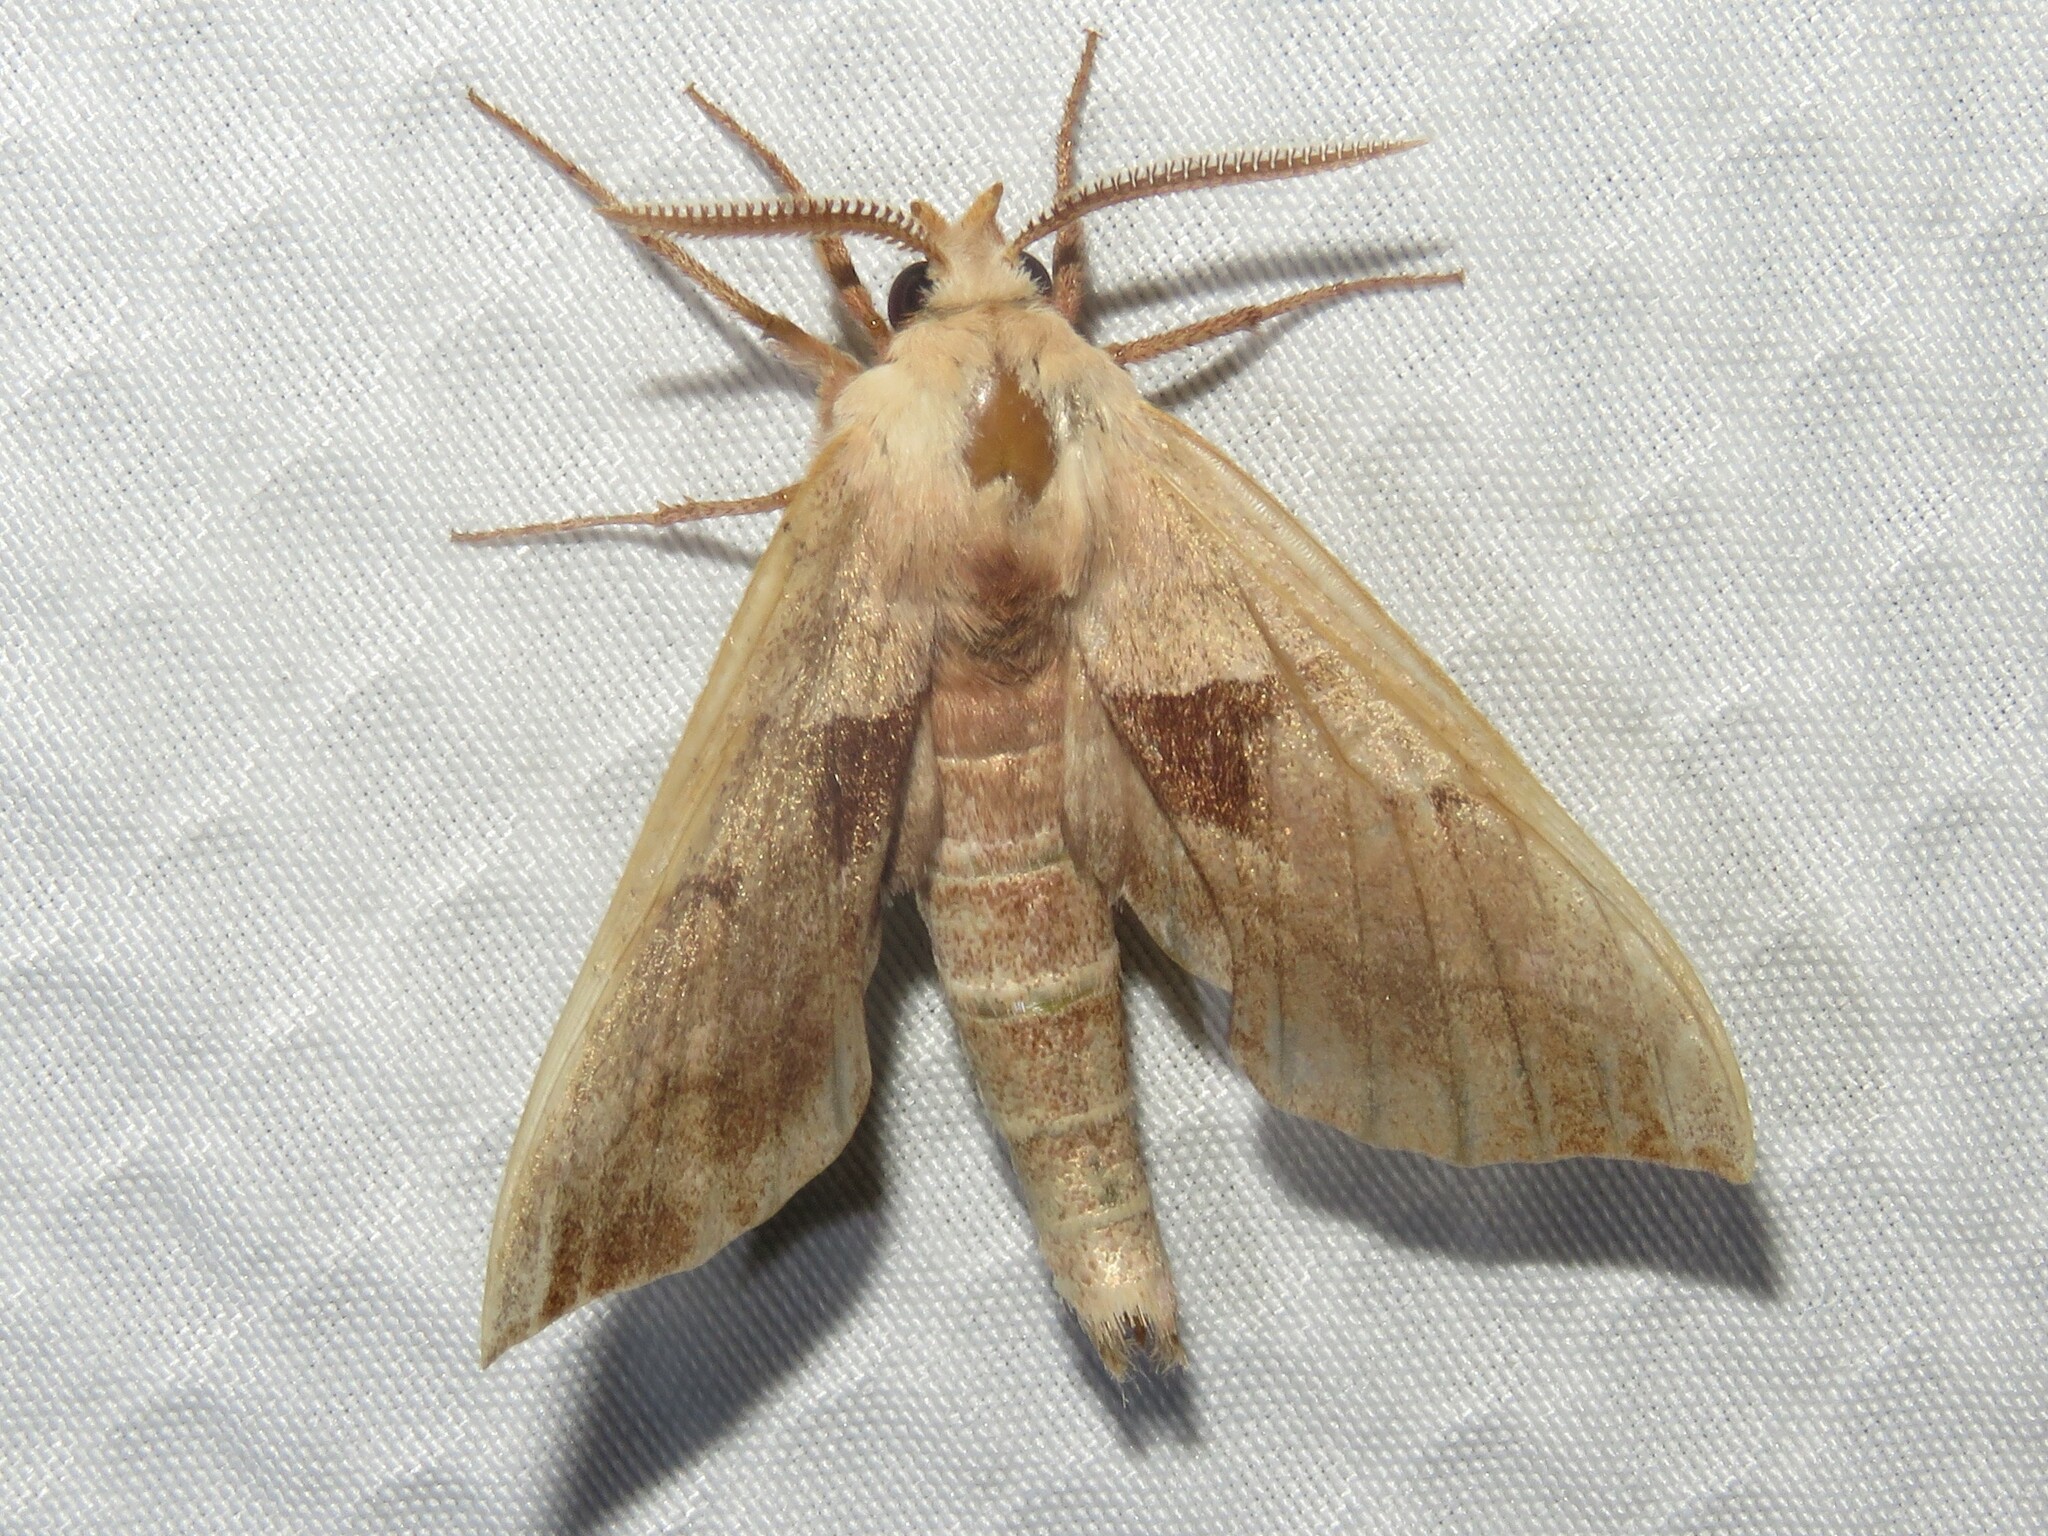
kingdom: Animalia
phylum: Arthropoda
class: Insecta
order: Lepidoptera
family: Sphingidae
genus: Amorpha
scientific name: Amorpha juglandis
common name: Walnut sphinx
